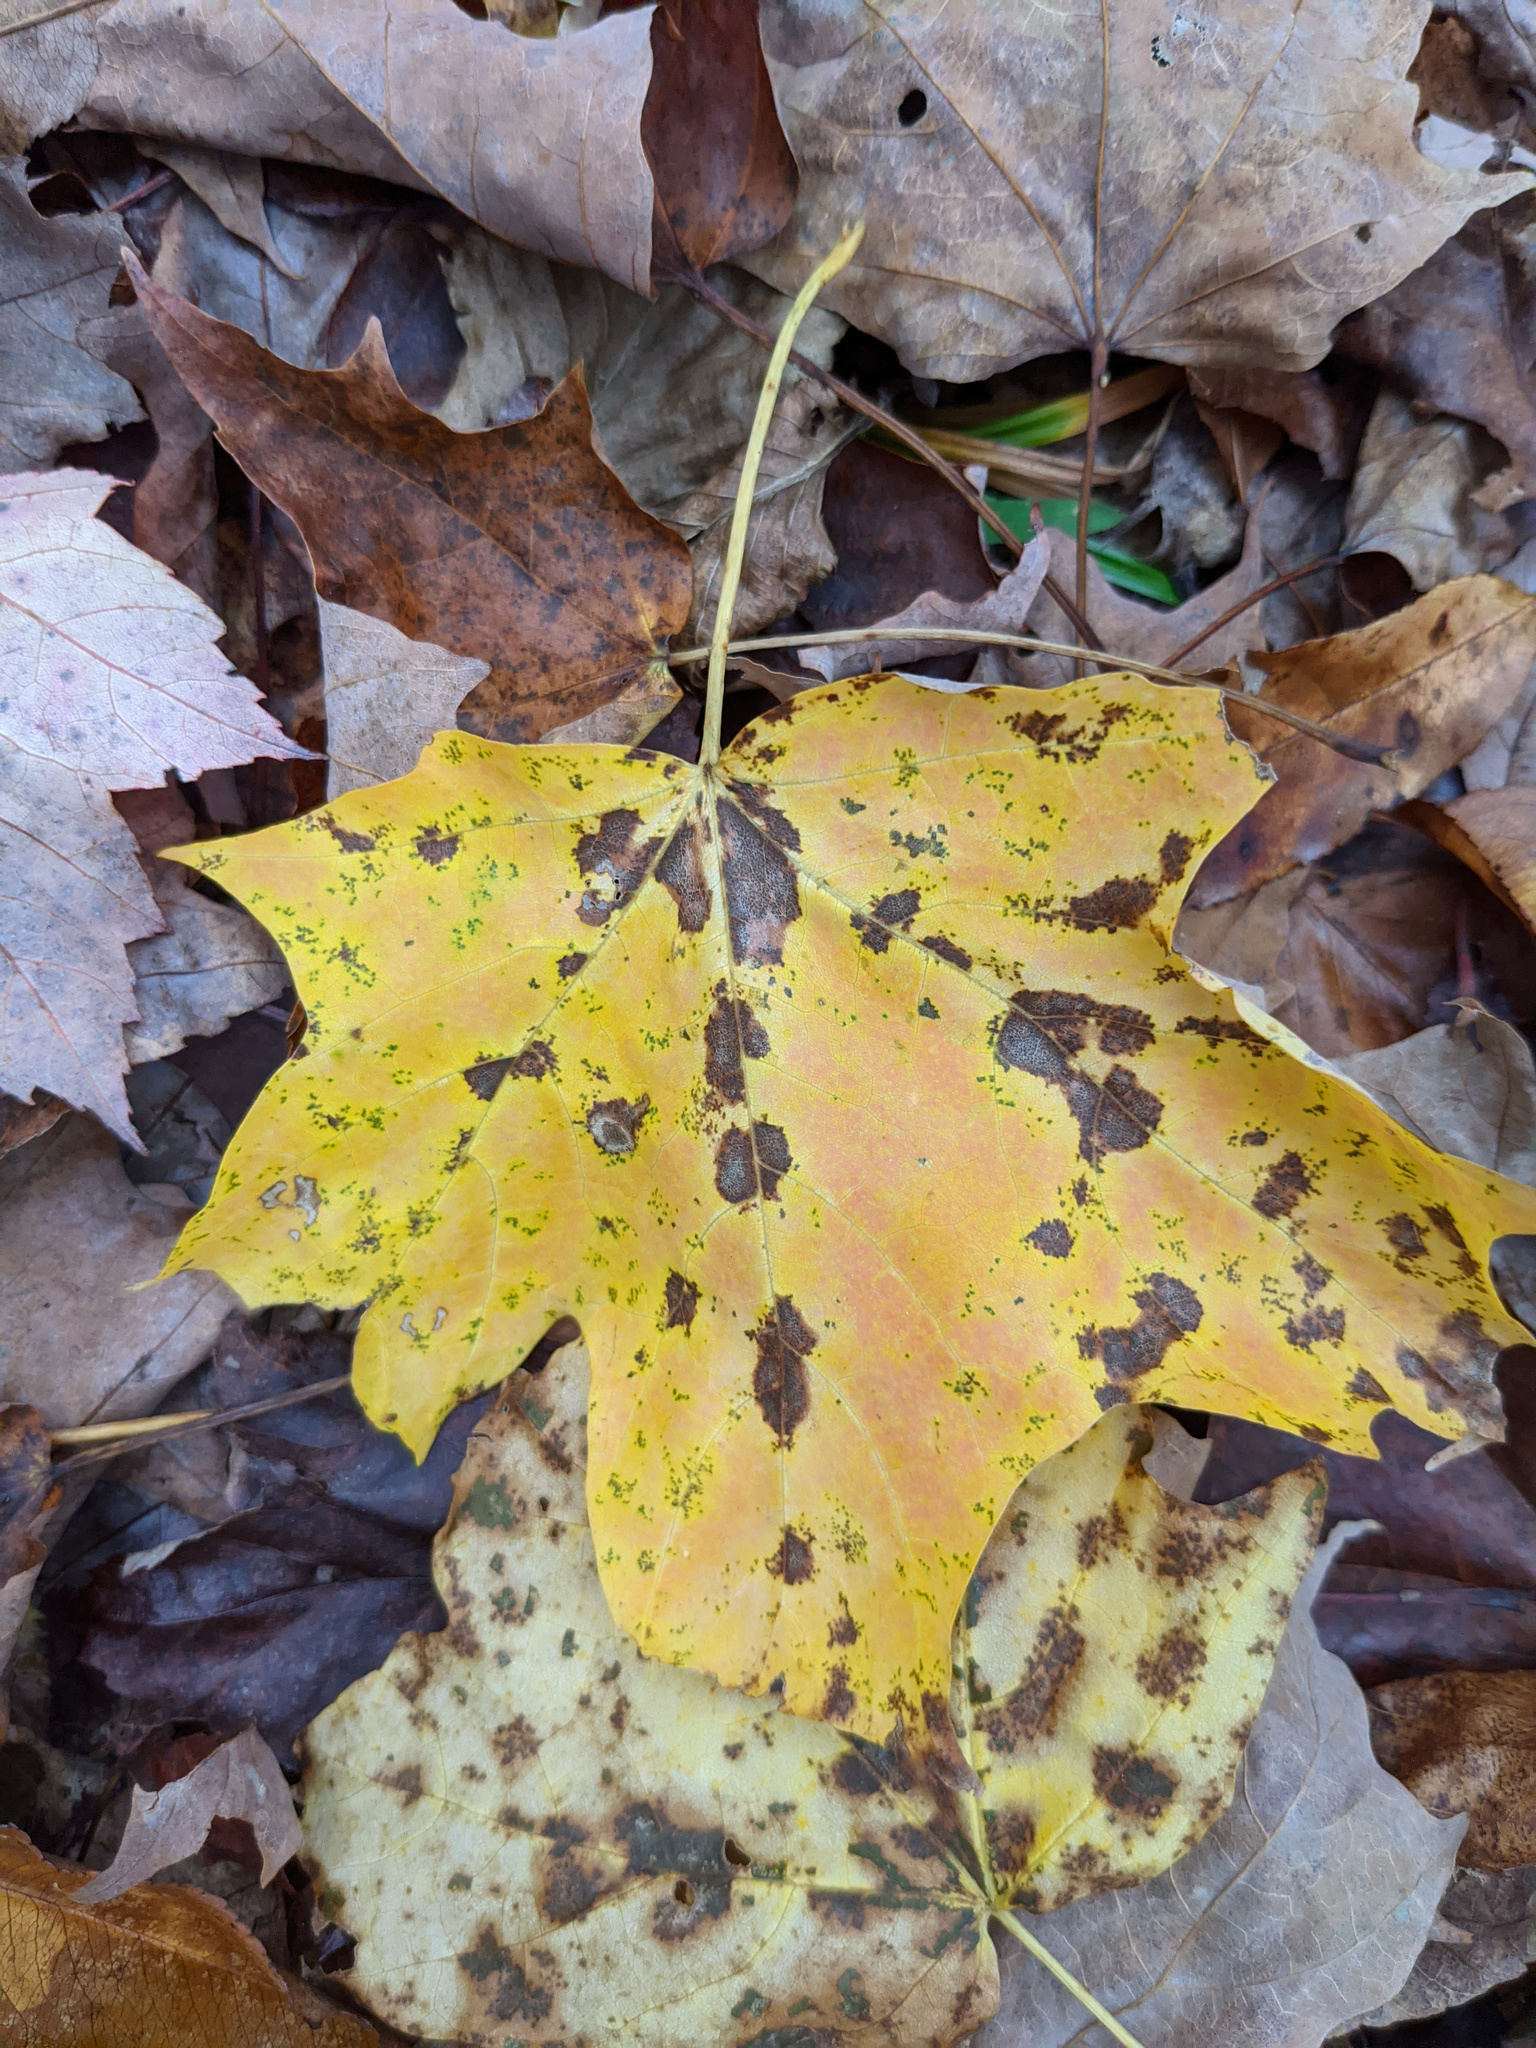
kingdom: Plantae
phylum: Tracheophyta
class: Magnoliopsida
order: Sapindales
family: Sapindaceae
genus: Acer
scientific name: Acer saccharum
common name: Sugar maple
